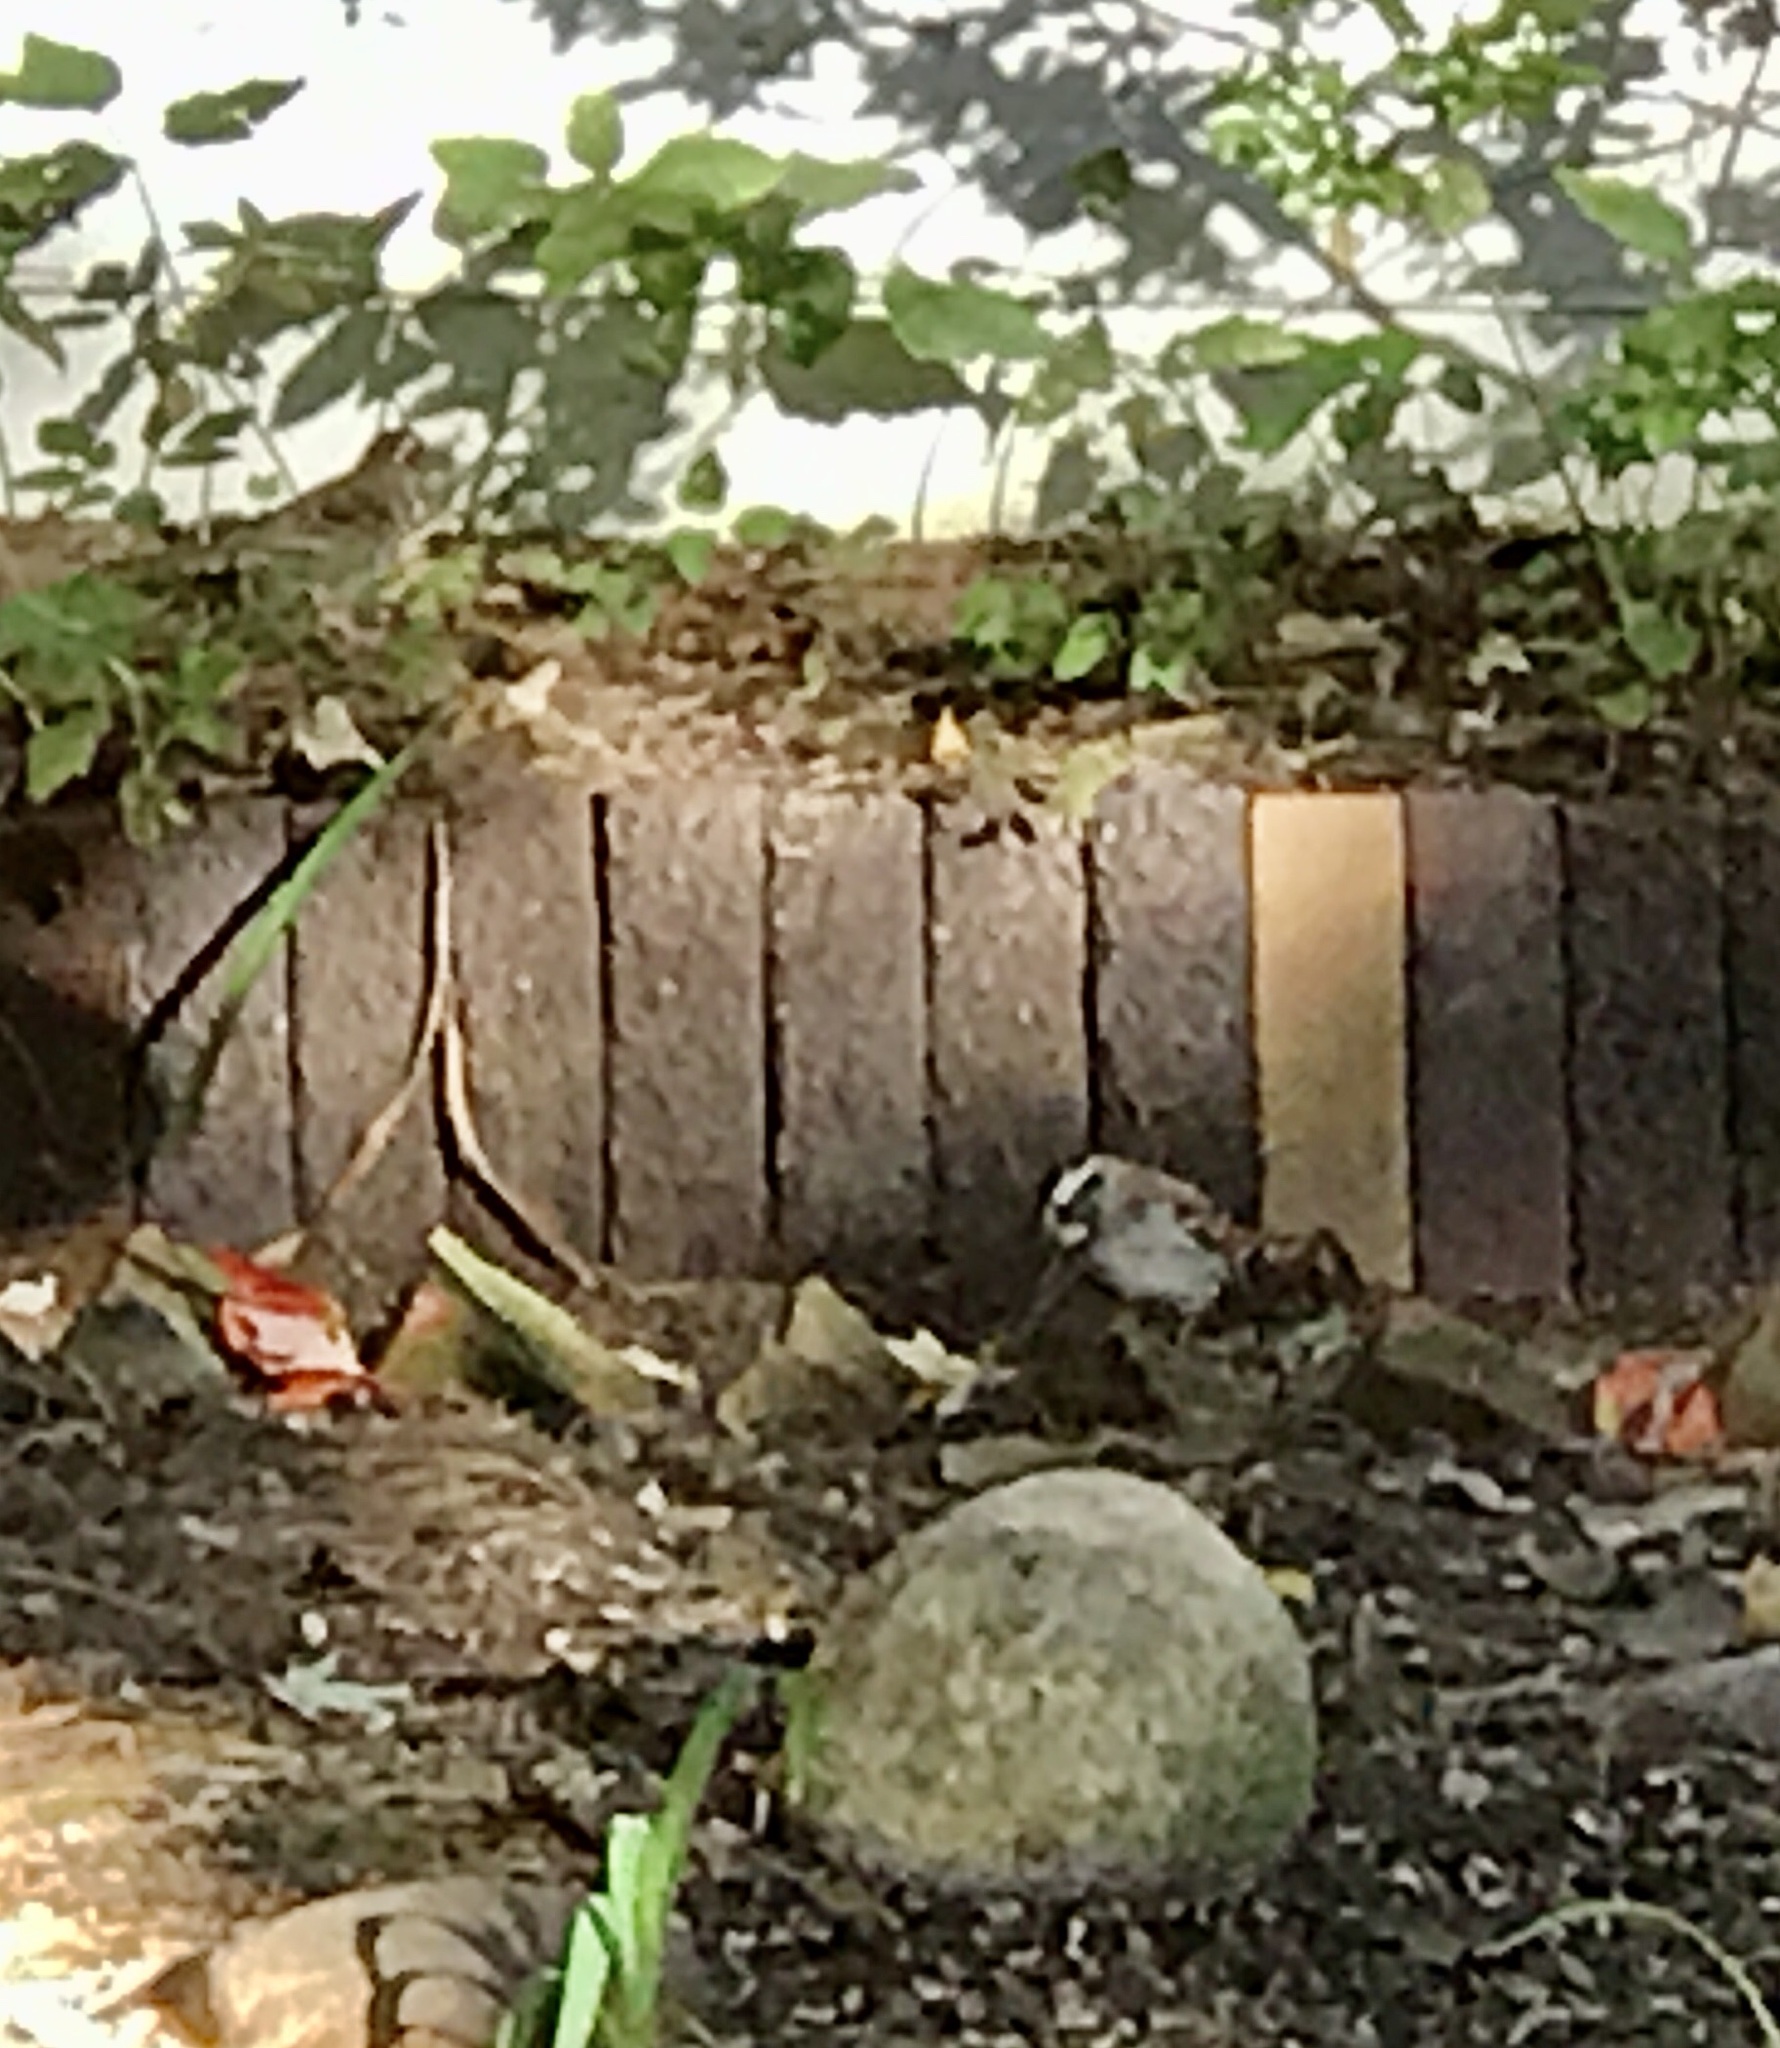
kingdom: Animalia
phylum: Chordata
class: Aves
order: Passeriformes
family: Passerellidae
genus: Zonotrichia
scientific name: Zonotrichia albicollis
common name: White-throated sparrow
